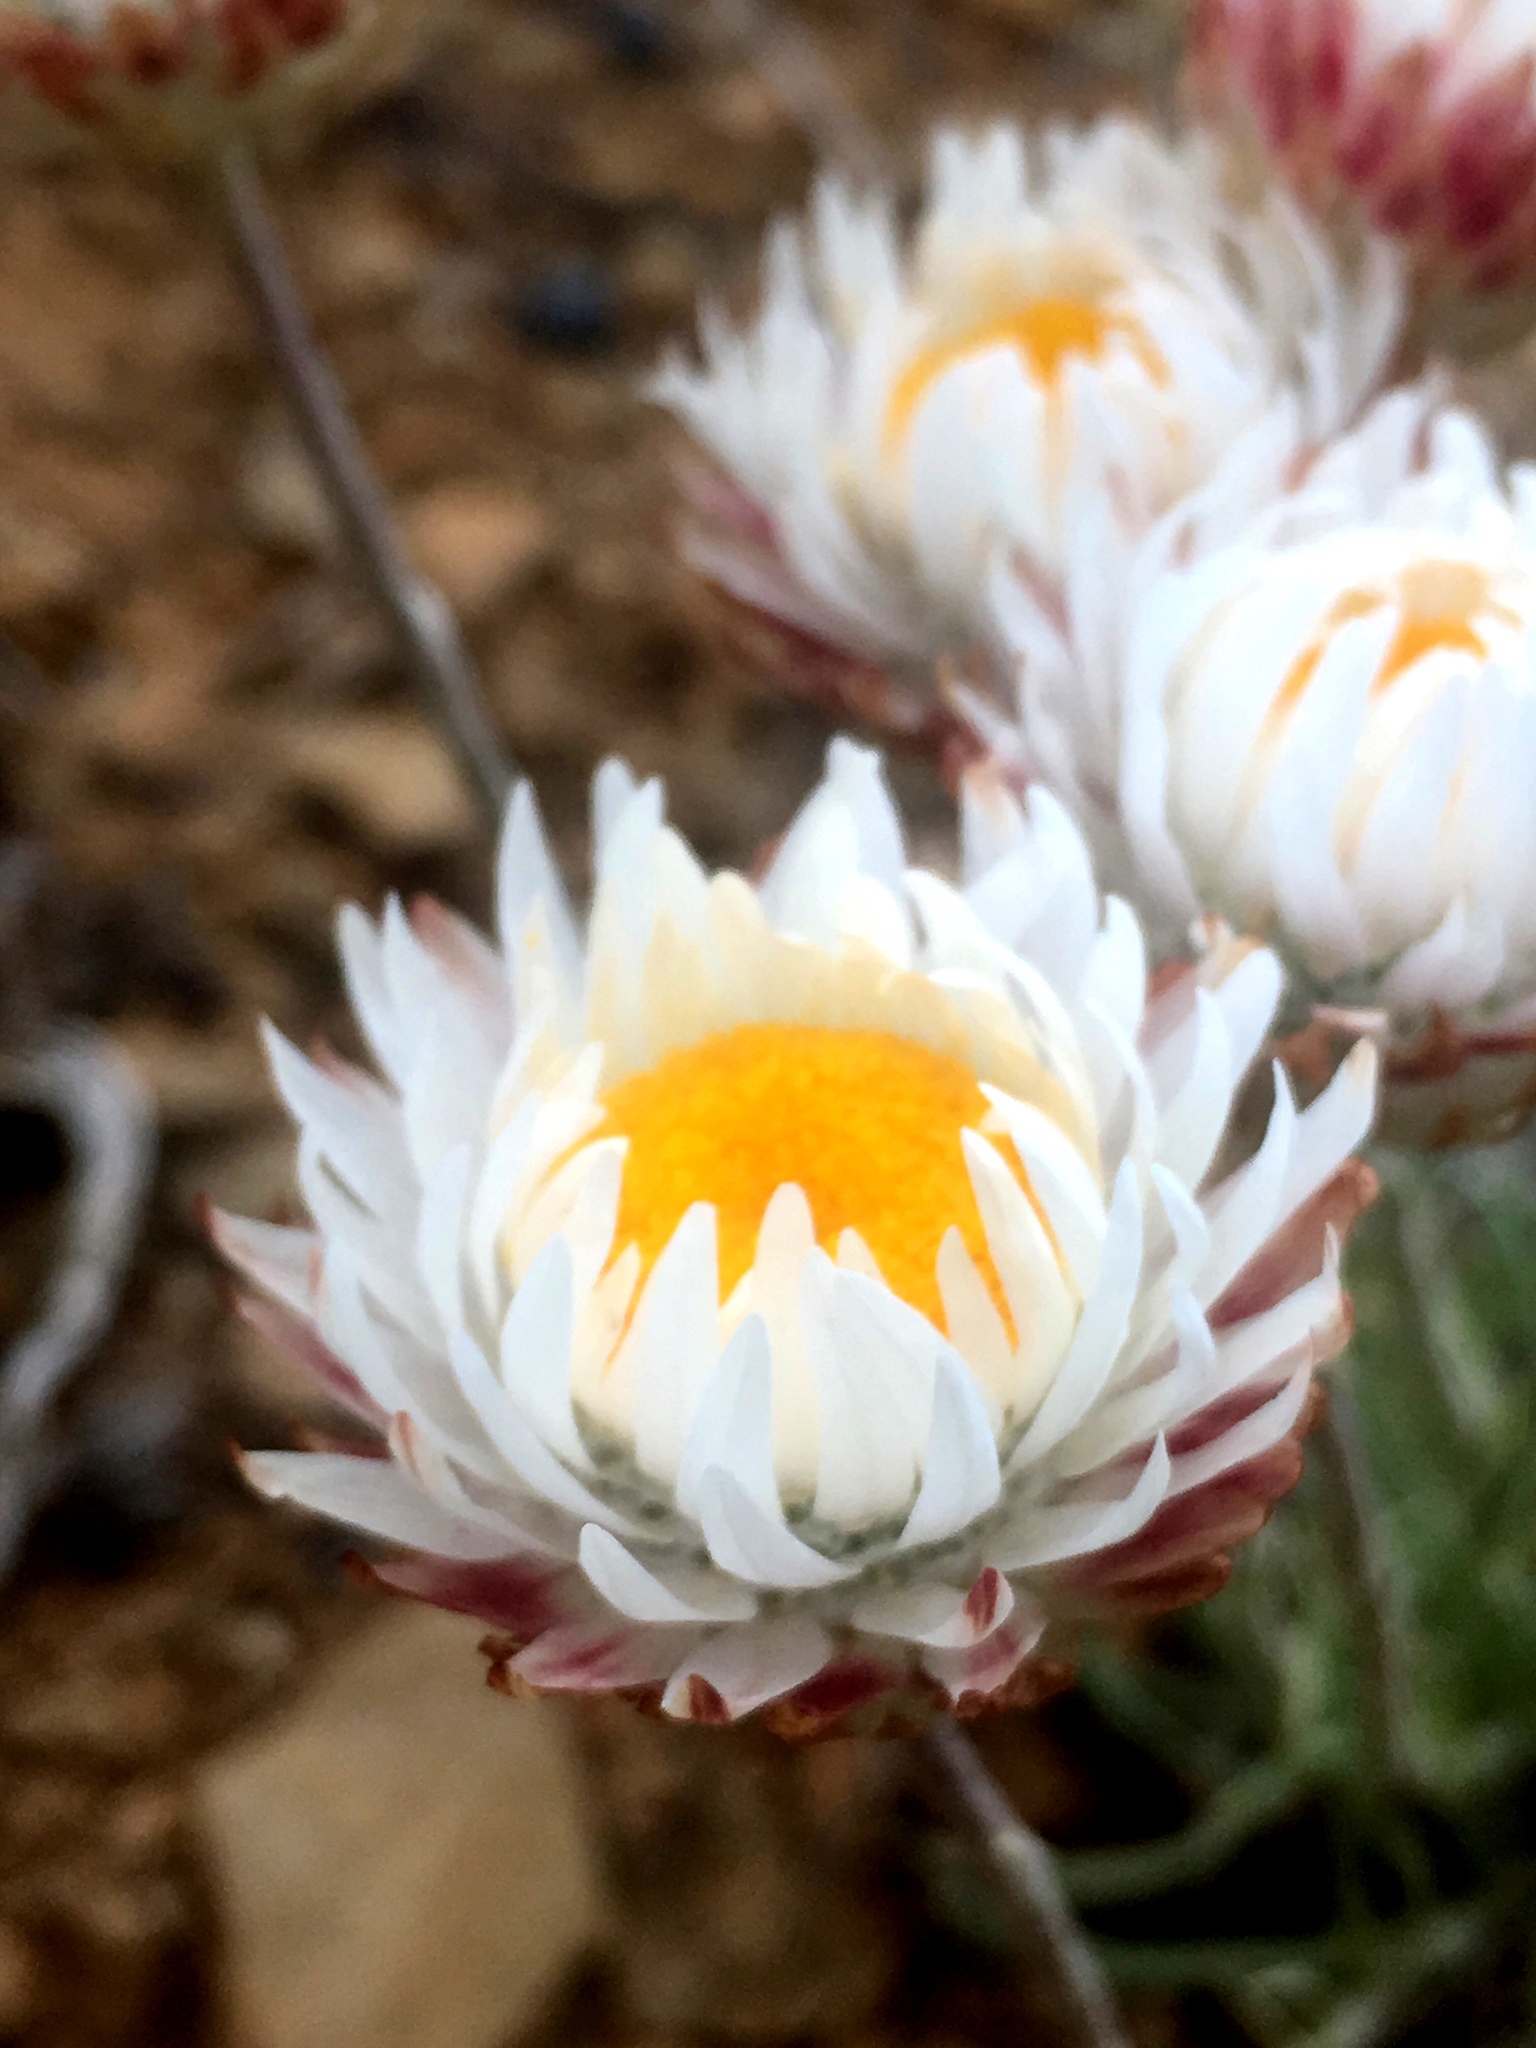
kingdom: Plantae
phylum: Tracheophyta
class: Magnoliopsida
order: Asterales
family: Asteraceae
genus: Leucochrysum
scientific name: Leucochrysum albicans
